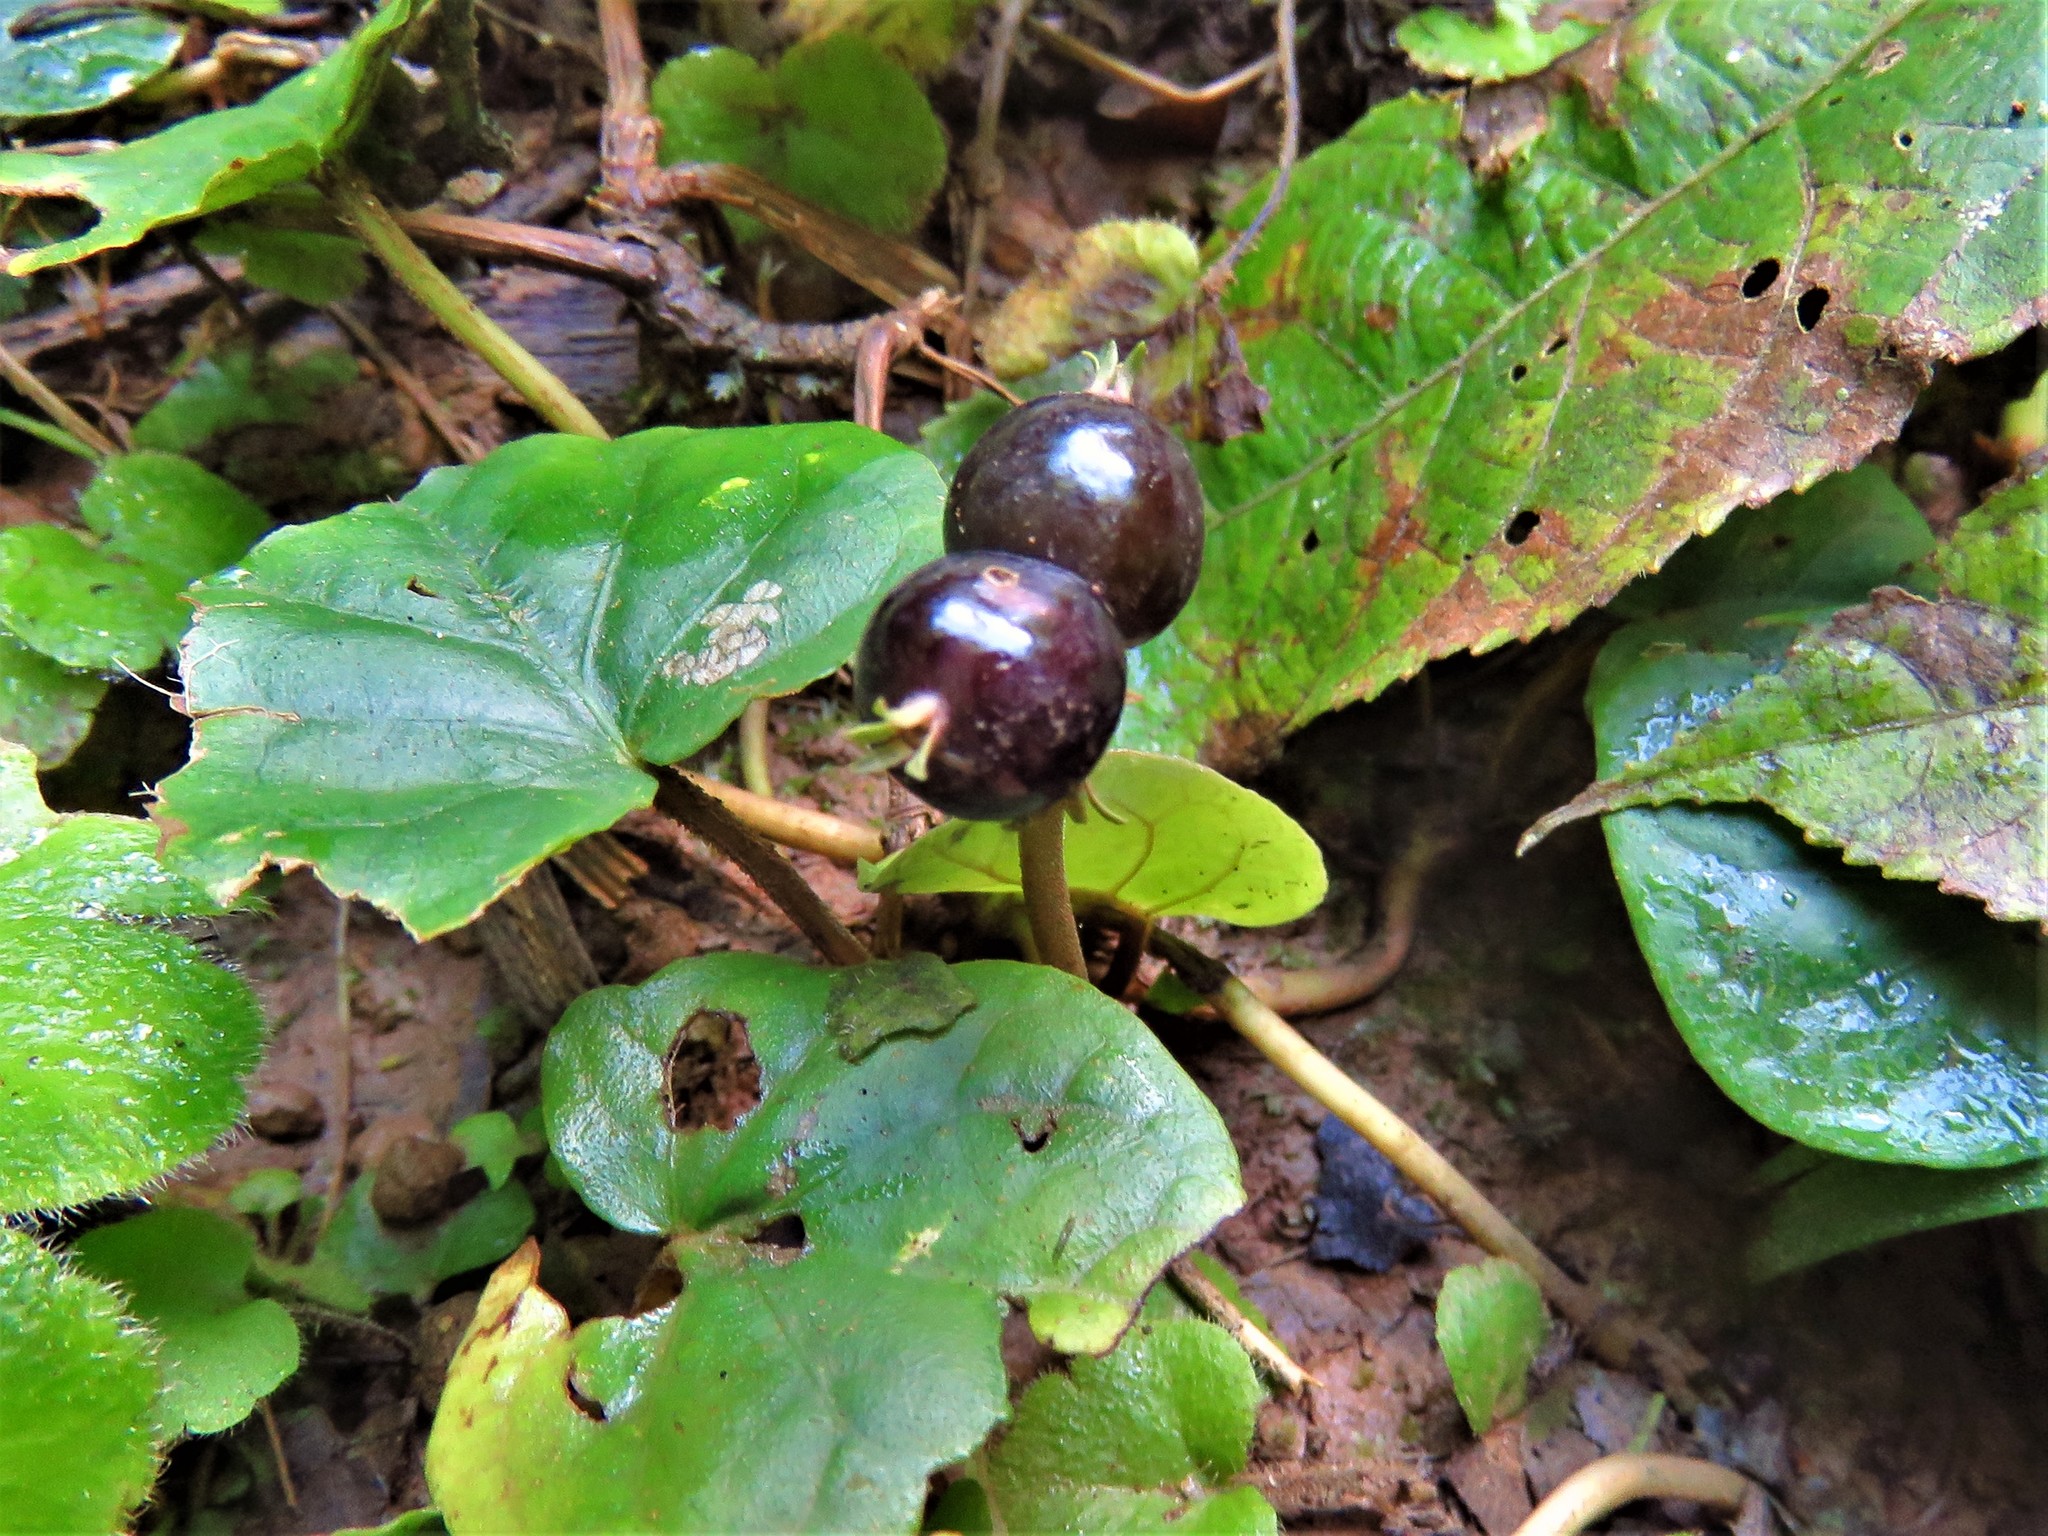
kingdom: Plantae
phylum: Tracheophyta
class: Magnoliopsida
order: Gentianales
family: Rubiaceae
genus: Geophila
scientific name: Geophila macropoda
